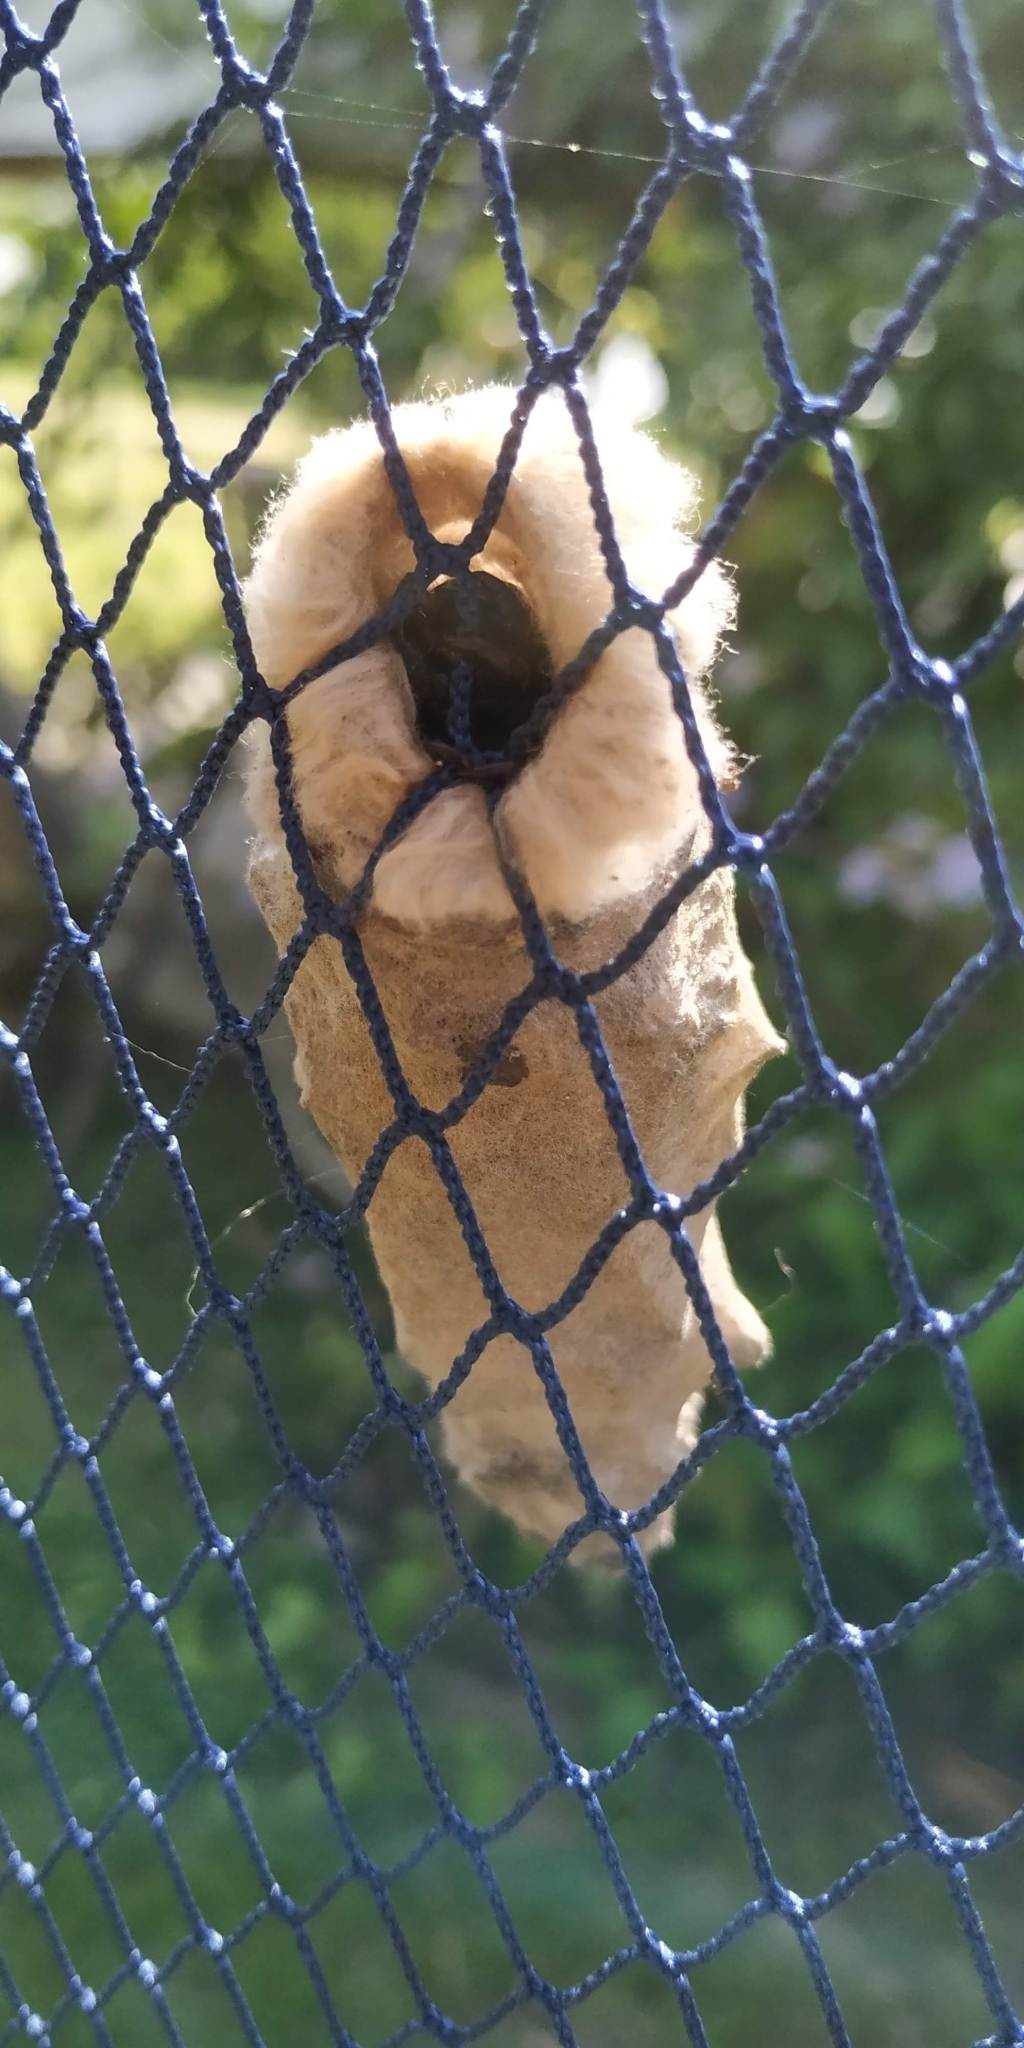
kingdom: Animalia
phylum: Arthropoda
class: Insecta
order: Lepidoptera
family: Psychidae
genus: Oiketicus
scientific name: Oiketicus kirbyi
